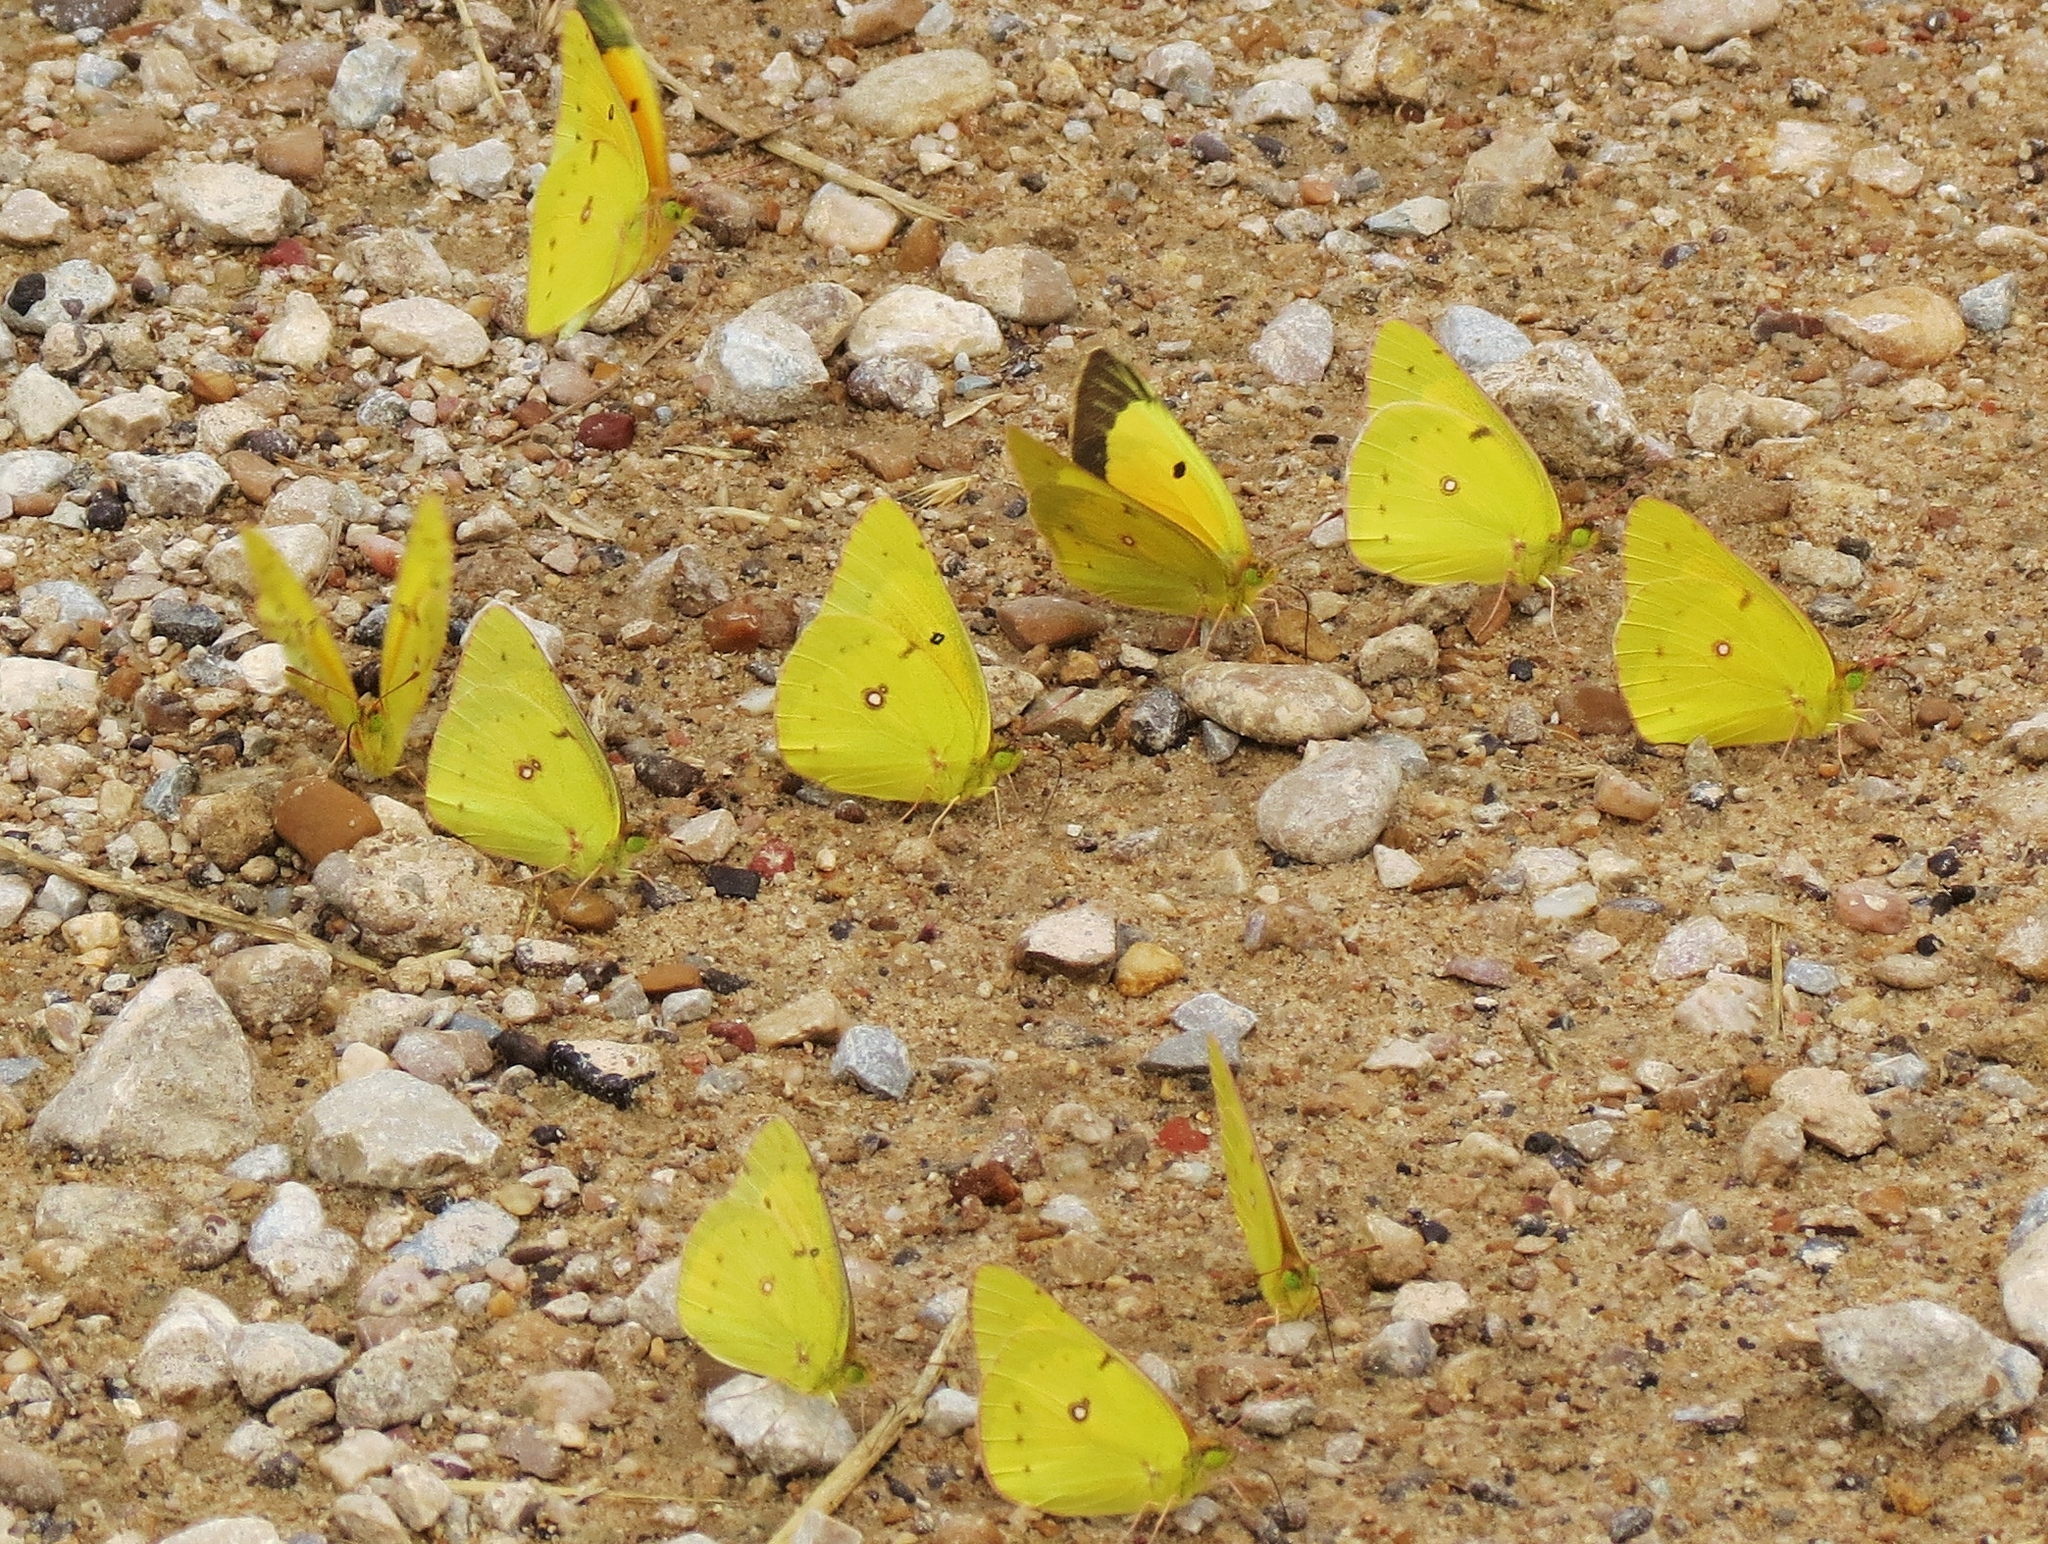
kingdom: Animalia
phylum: Arthropoda
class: Insecta
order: Lepidoptera
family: Pieridae
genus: Colias
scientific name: Colias eurytheme
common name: Alfalfa butterfly
